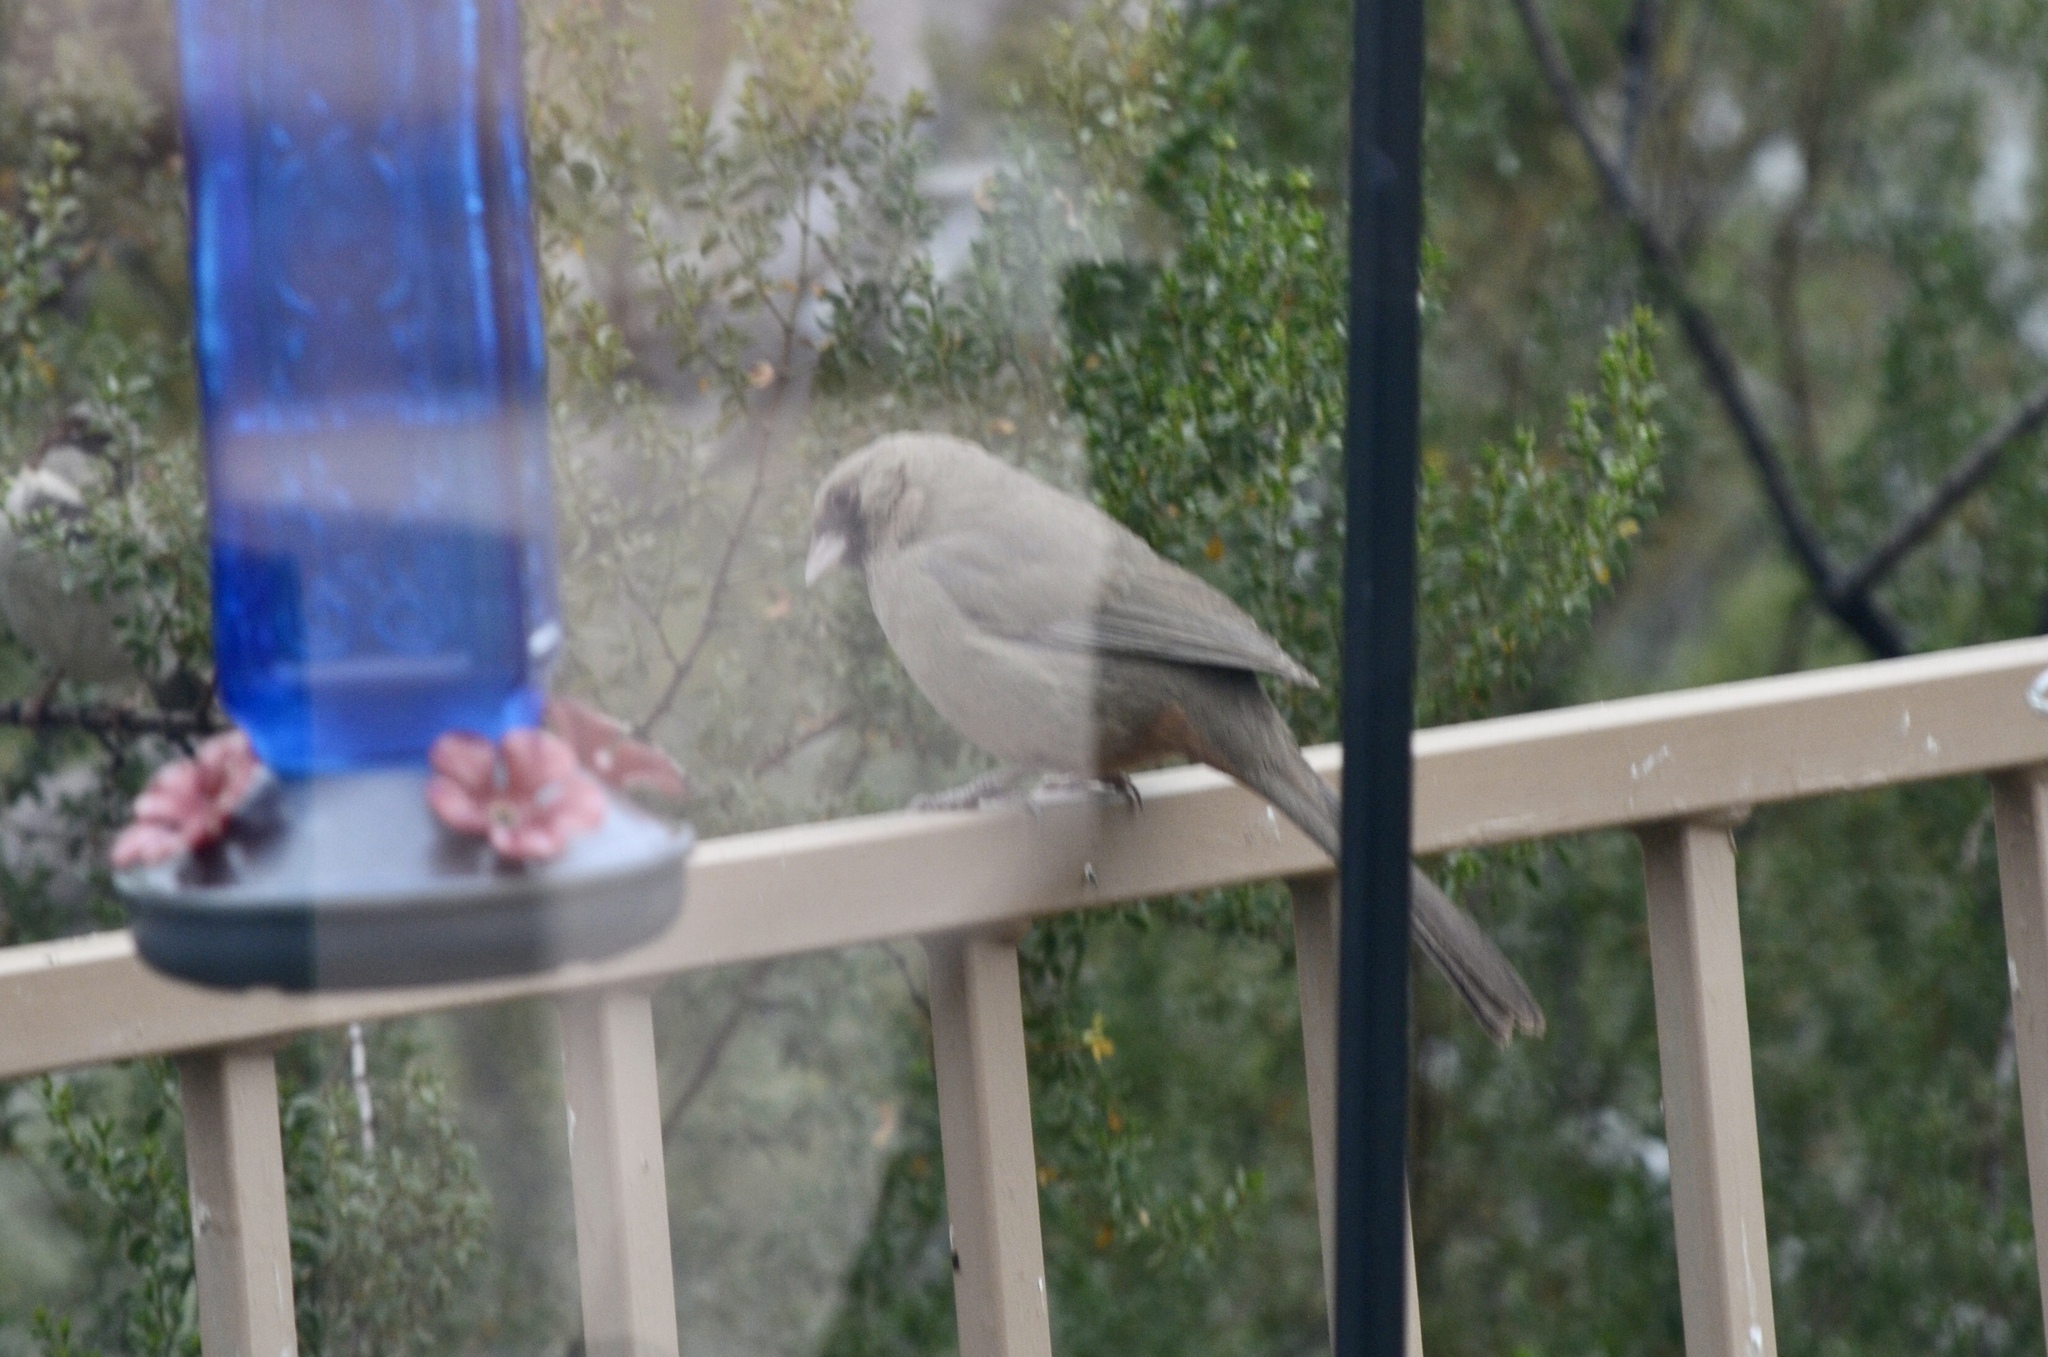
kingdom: Animalia
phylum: Chordata
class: Aves
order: Passeriformes
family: Passerellidae
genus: Melozone
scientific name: Melozone aberti
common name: Abert's towhee
